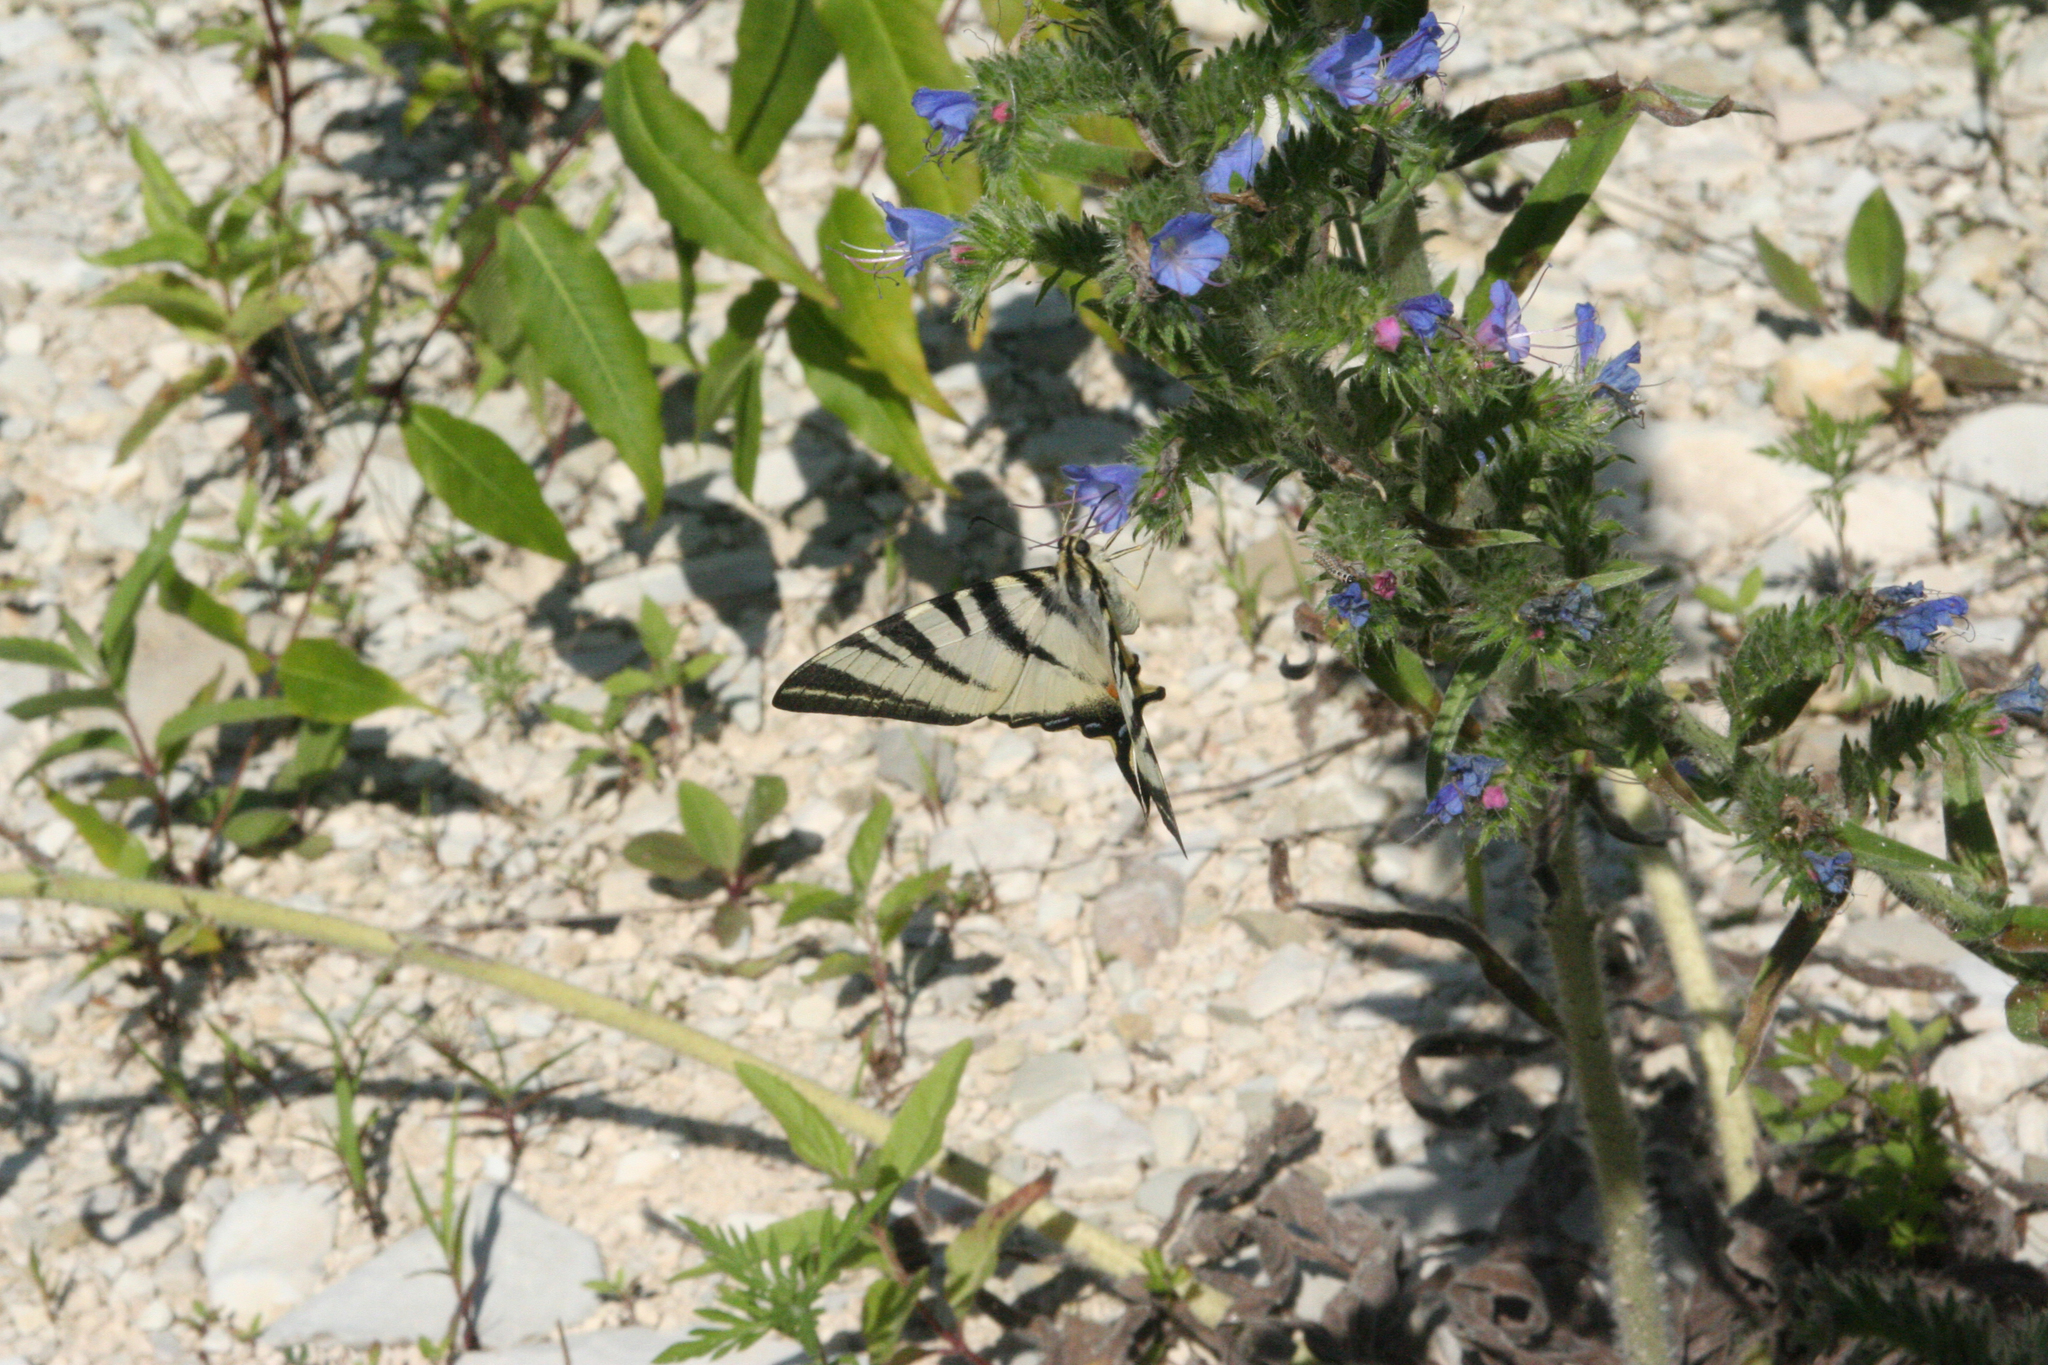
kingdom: Animalia
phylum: Arthropoda
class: Insecta
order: Lepidoptera
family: Papilionidae
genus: Iphiclides
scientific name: Iphiclides podalirius
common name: Scarce swallowtail
